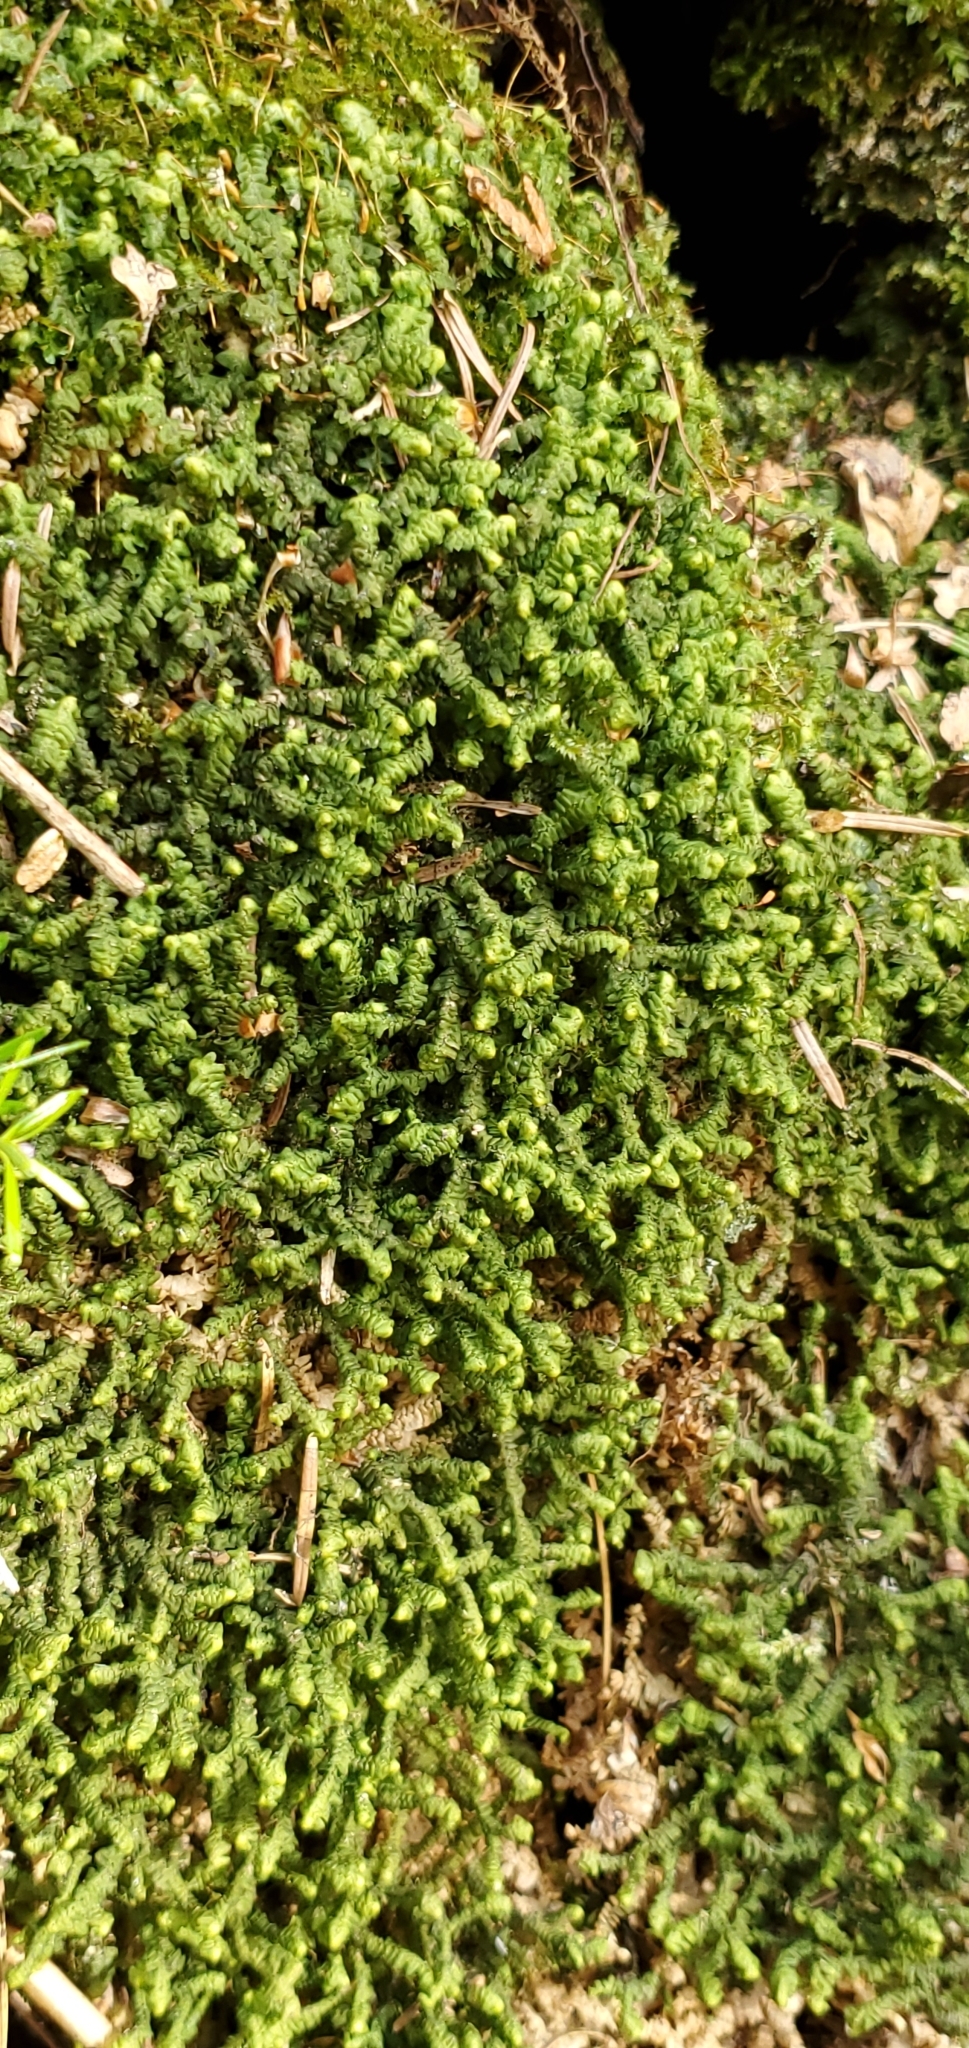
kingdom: Plantae
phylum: Marchantiophyta
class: Jungermanniopsida
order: Jungermanniales
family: Lepidoziaceae
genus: Bazzania
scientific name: Bazzania trilobata
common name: Three-lobed whipwort
